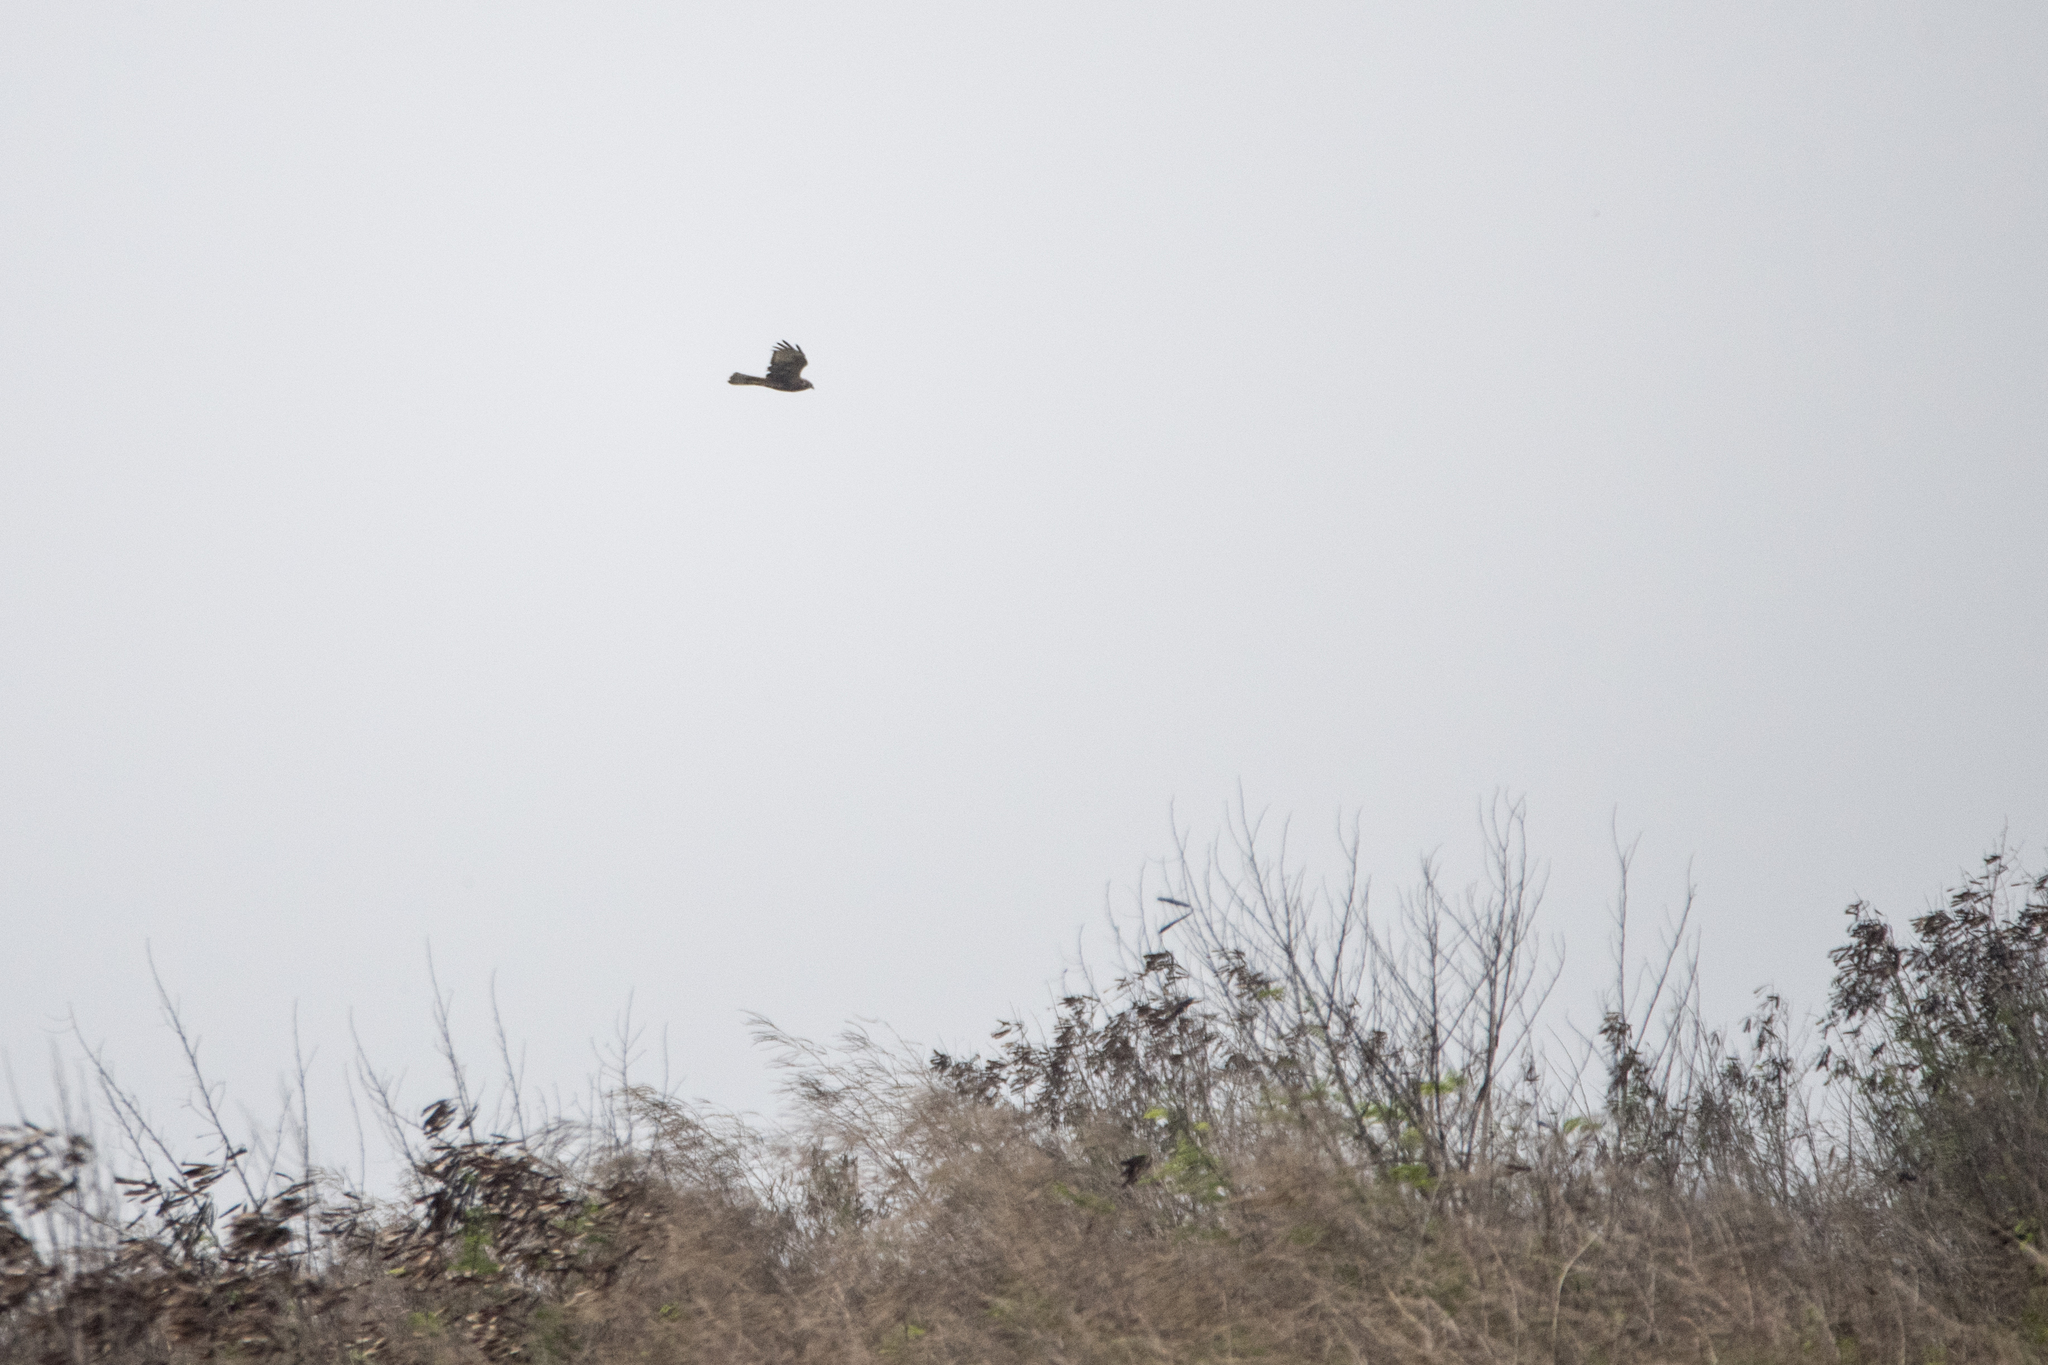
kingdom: Animalia
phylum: Chordata
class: Aves
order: Accipitriformes
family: Accipitridae
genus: Circus
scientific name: Circus spilonotus
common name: Eastern marsh-harrier
